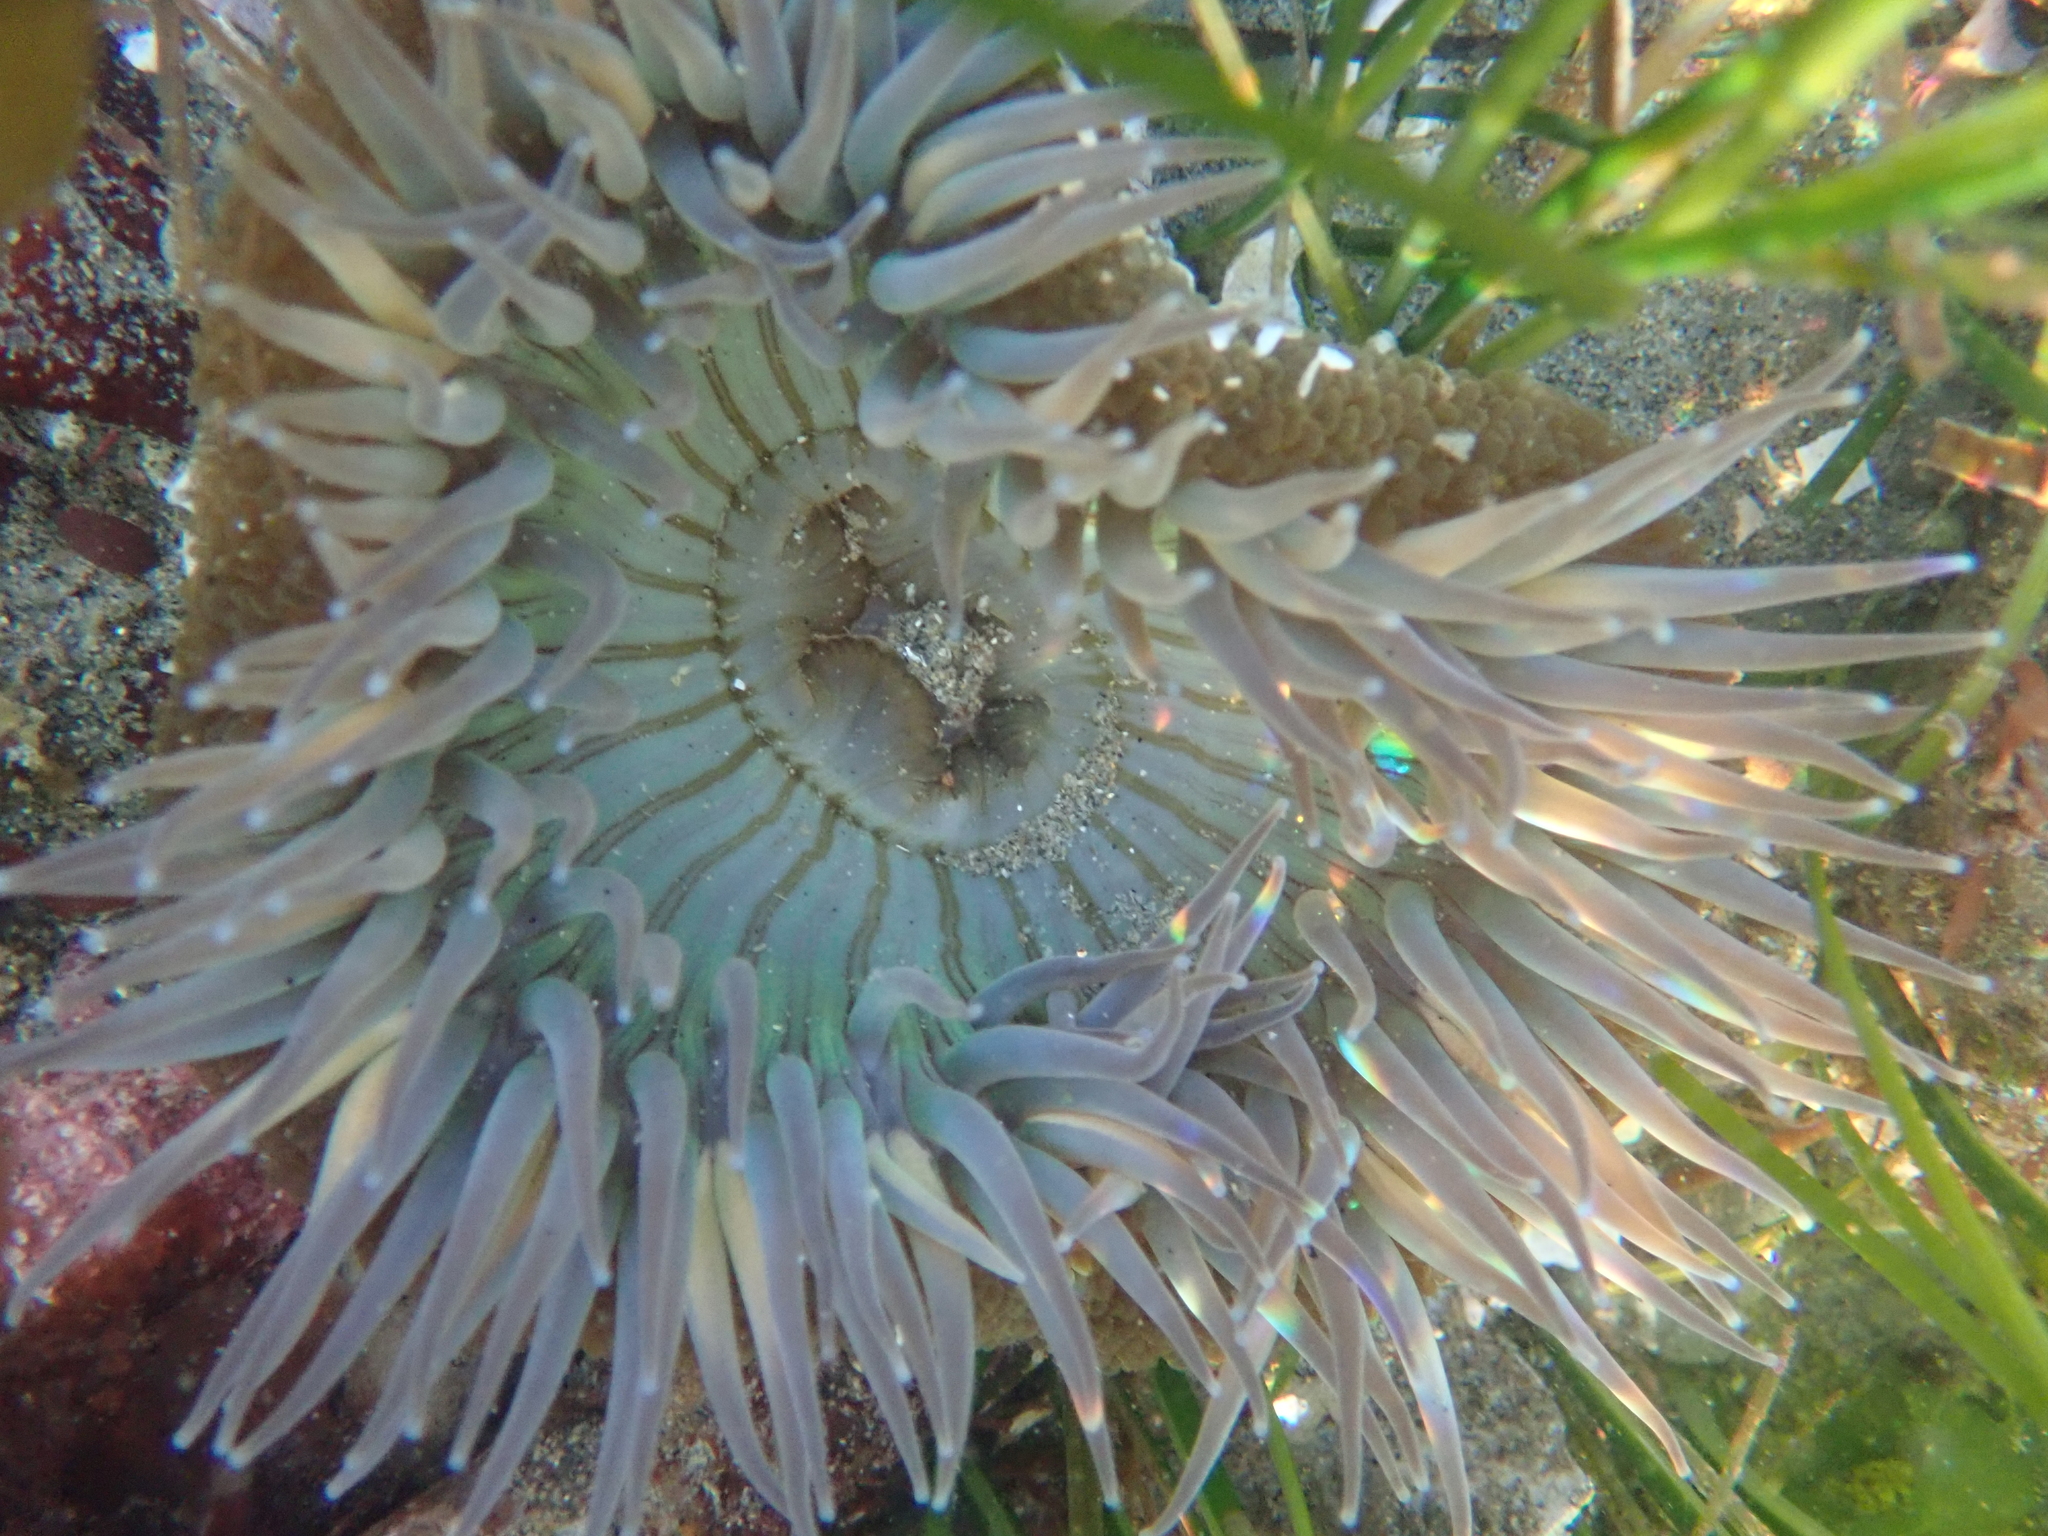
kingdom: Animalia
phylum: Cnidaria
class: Anthozoa
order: Actiniaria
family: Actiniidae
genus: Anthopleura
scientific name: Anthopleura sola
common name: Sun anemone
